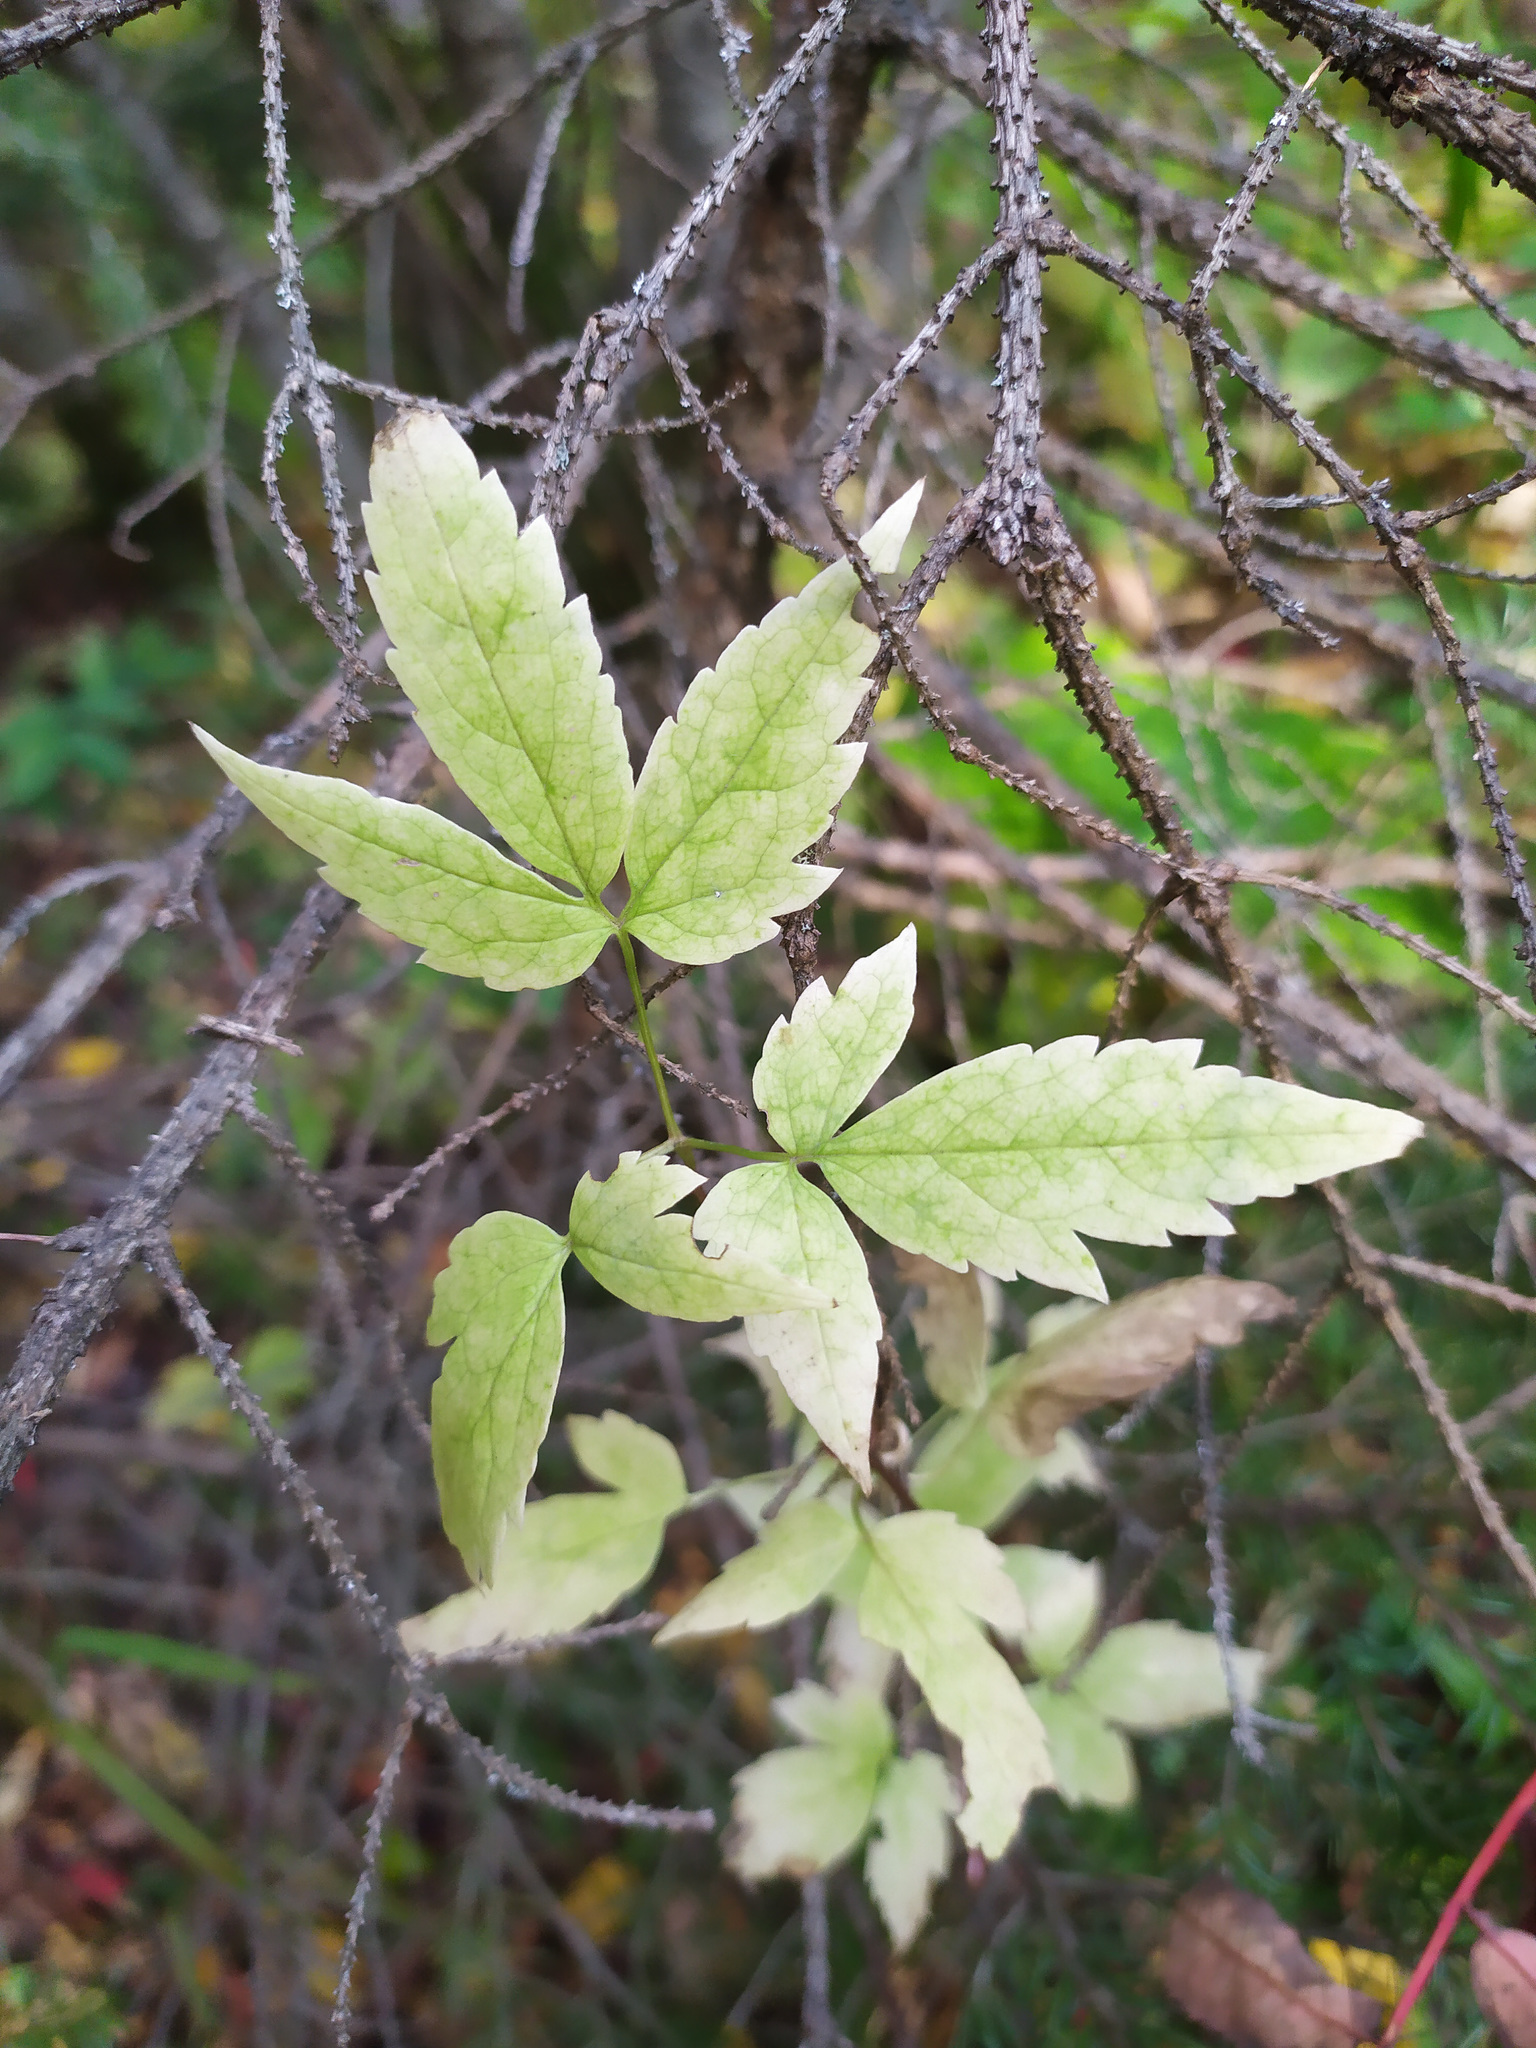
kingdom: Plantae
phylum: Tracheophyta
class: Magnoliopsida
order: Ranunculales
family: Ranunculaceae
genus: Clematis
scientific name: Clematis sibirica
